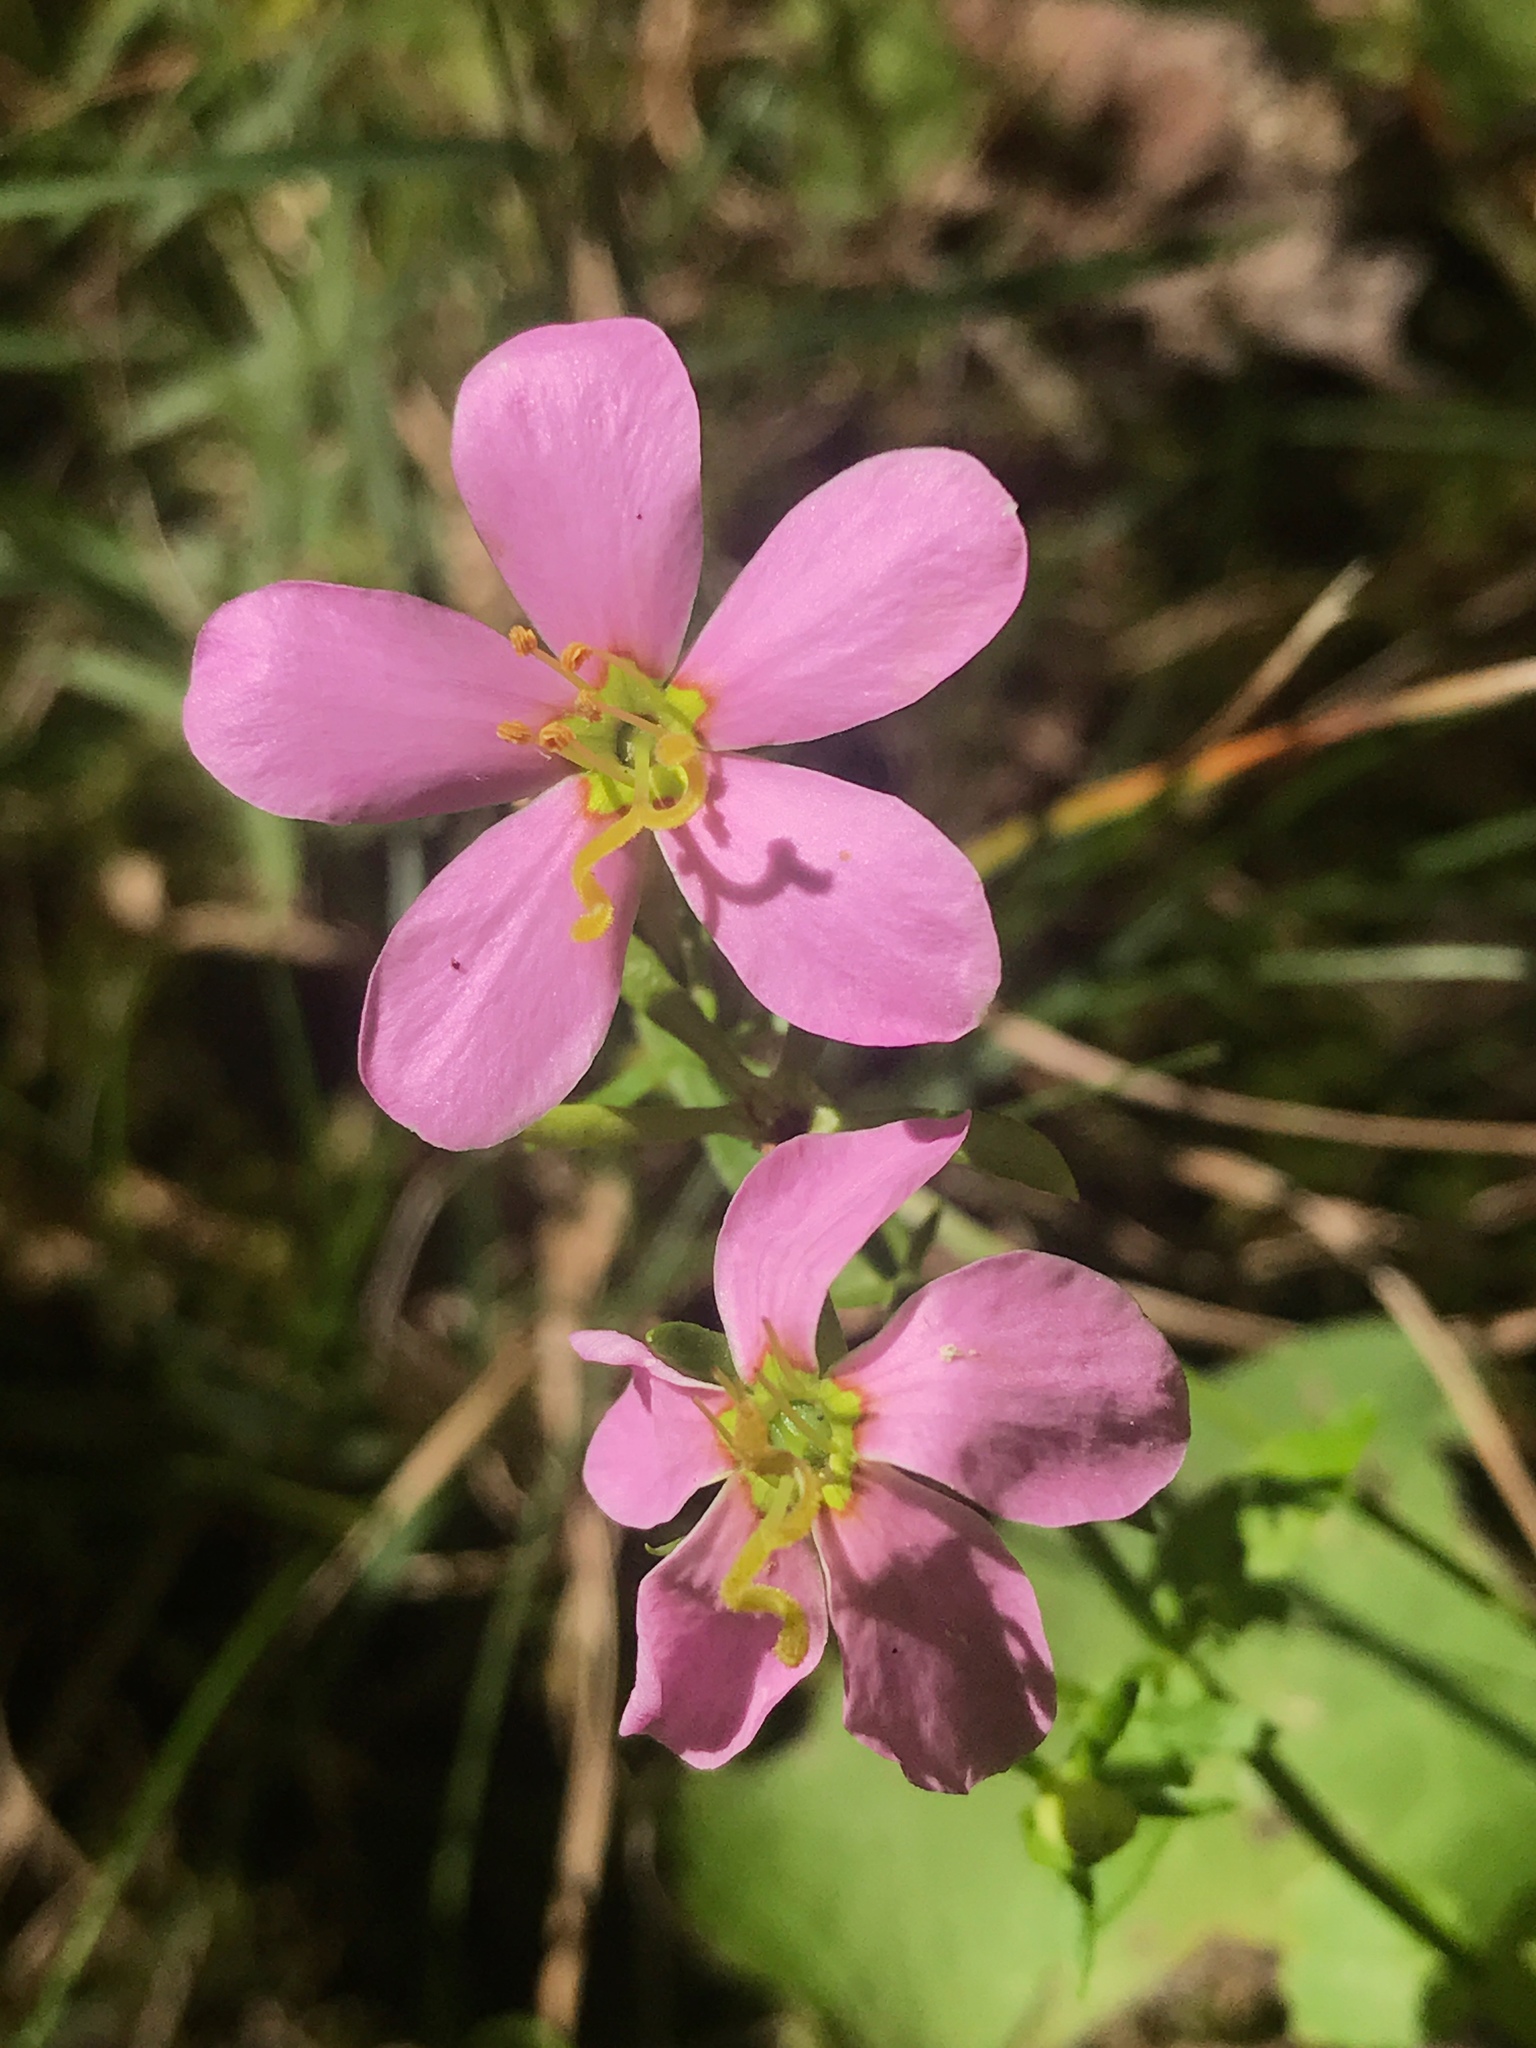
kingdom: Plantae
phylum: Tracheophyta
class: Magnoliopsida
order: Gentianales
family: Gentianaceae
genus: Sabatia
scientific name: Sabatia angularis
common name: Rose-pink
